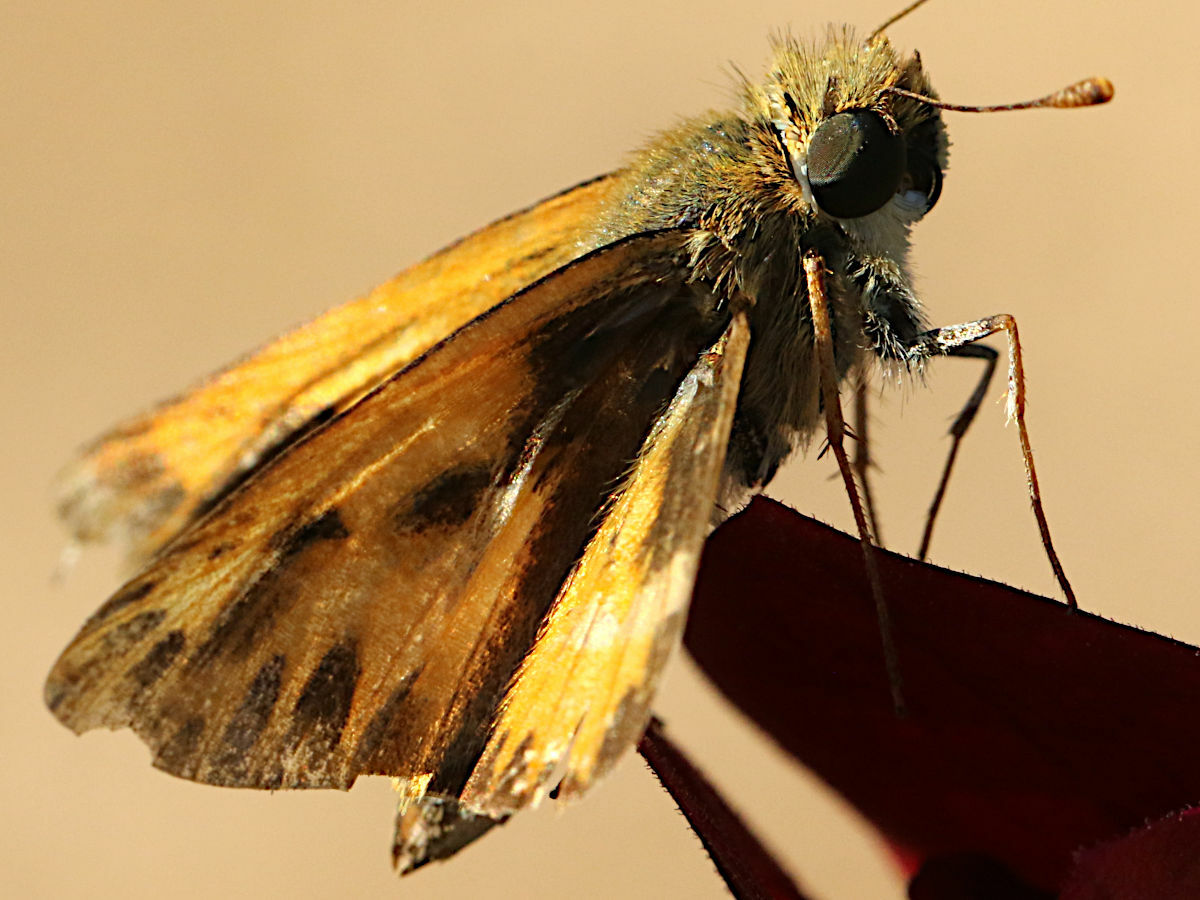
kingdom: Animalia
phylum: Arthropoda
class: Insecta
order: Lepidoptera
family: Hesperiidae
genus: Hylephila
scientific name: Hylephila phyleus
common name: Fiery skipper
